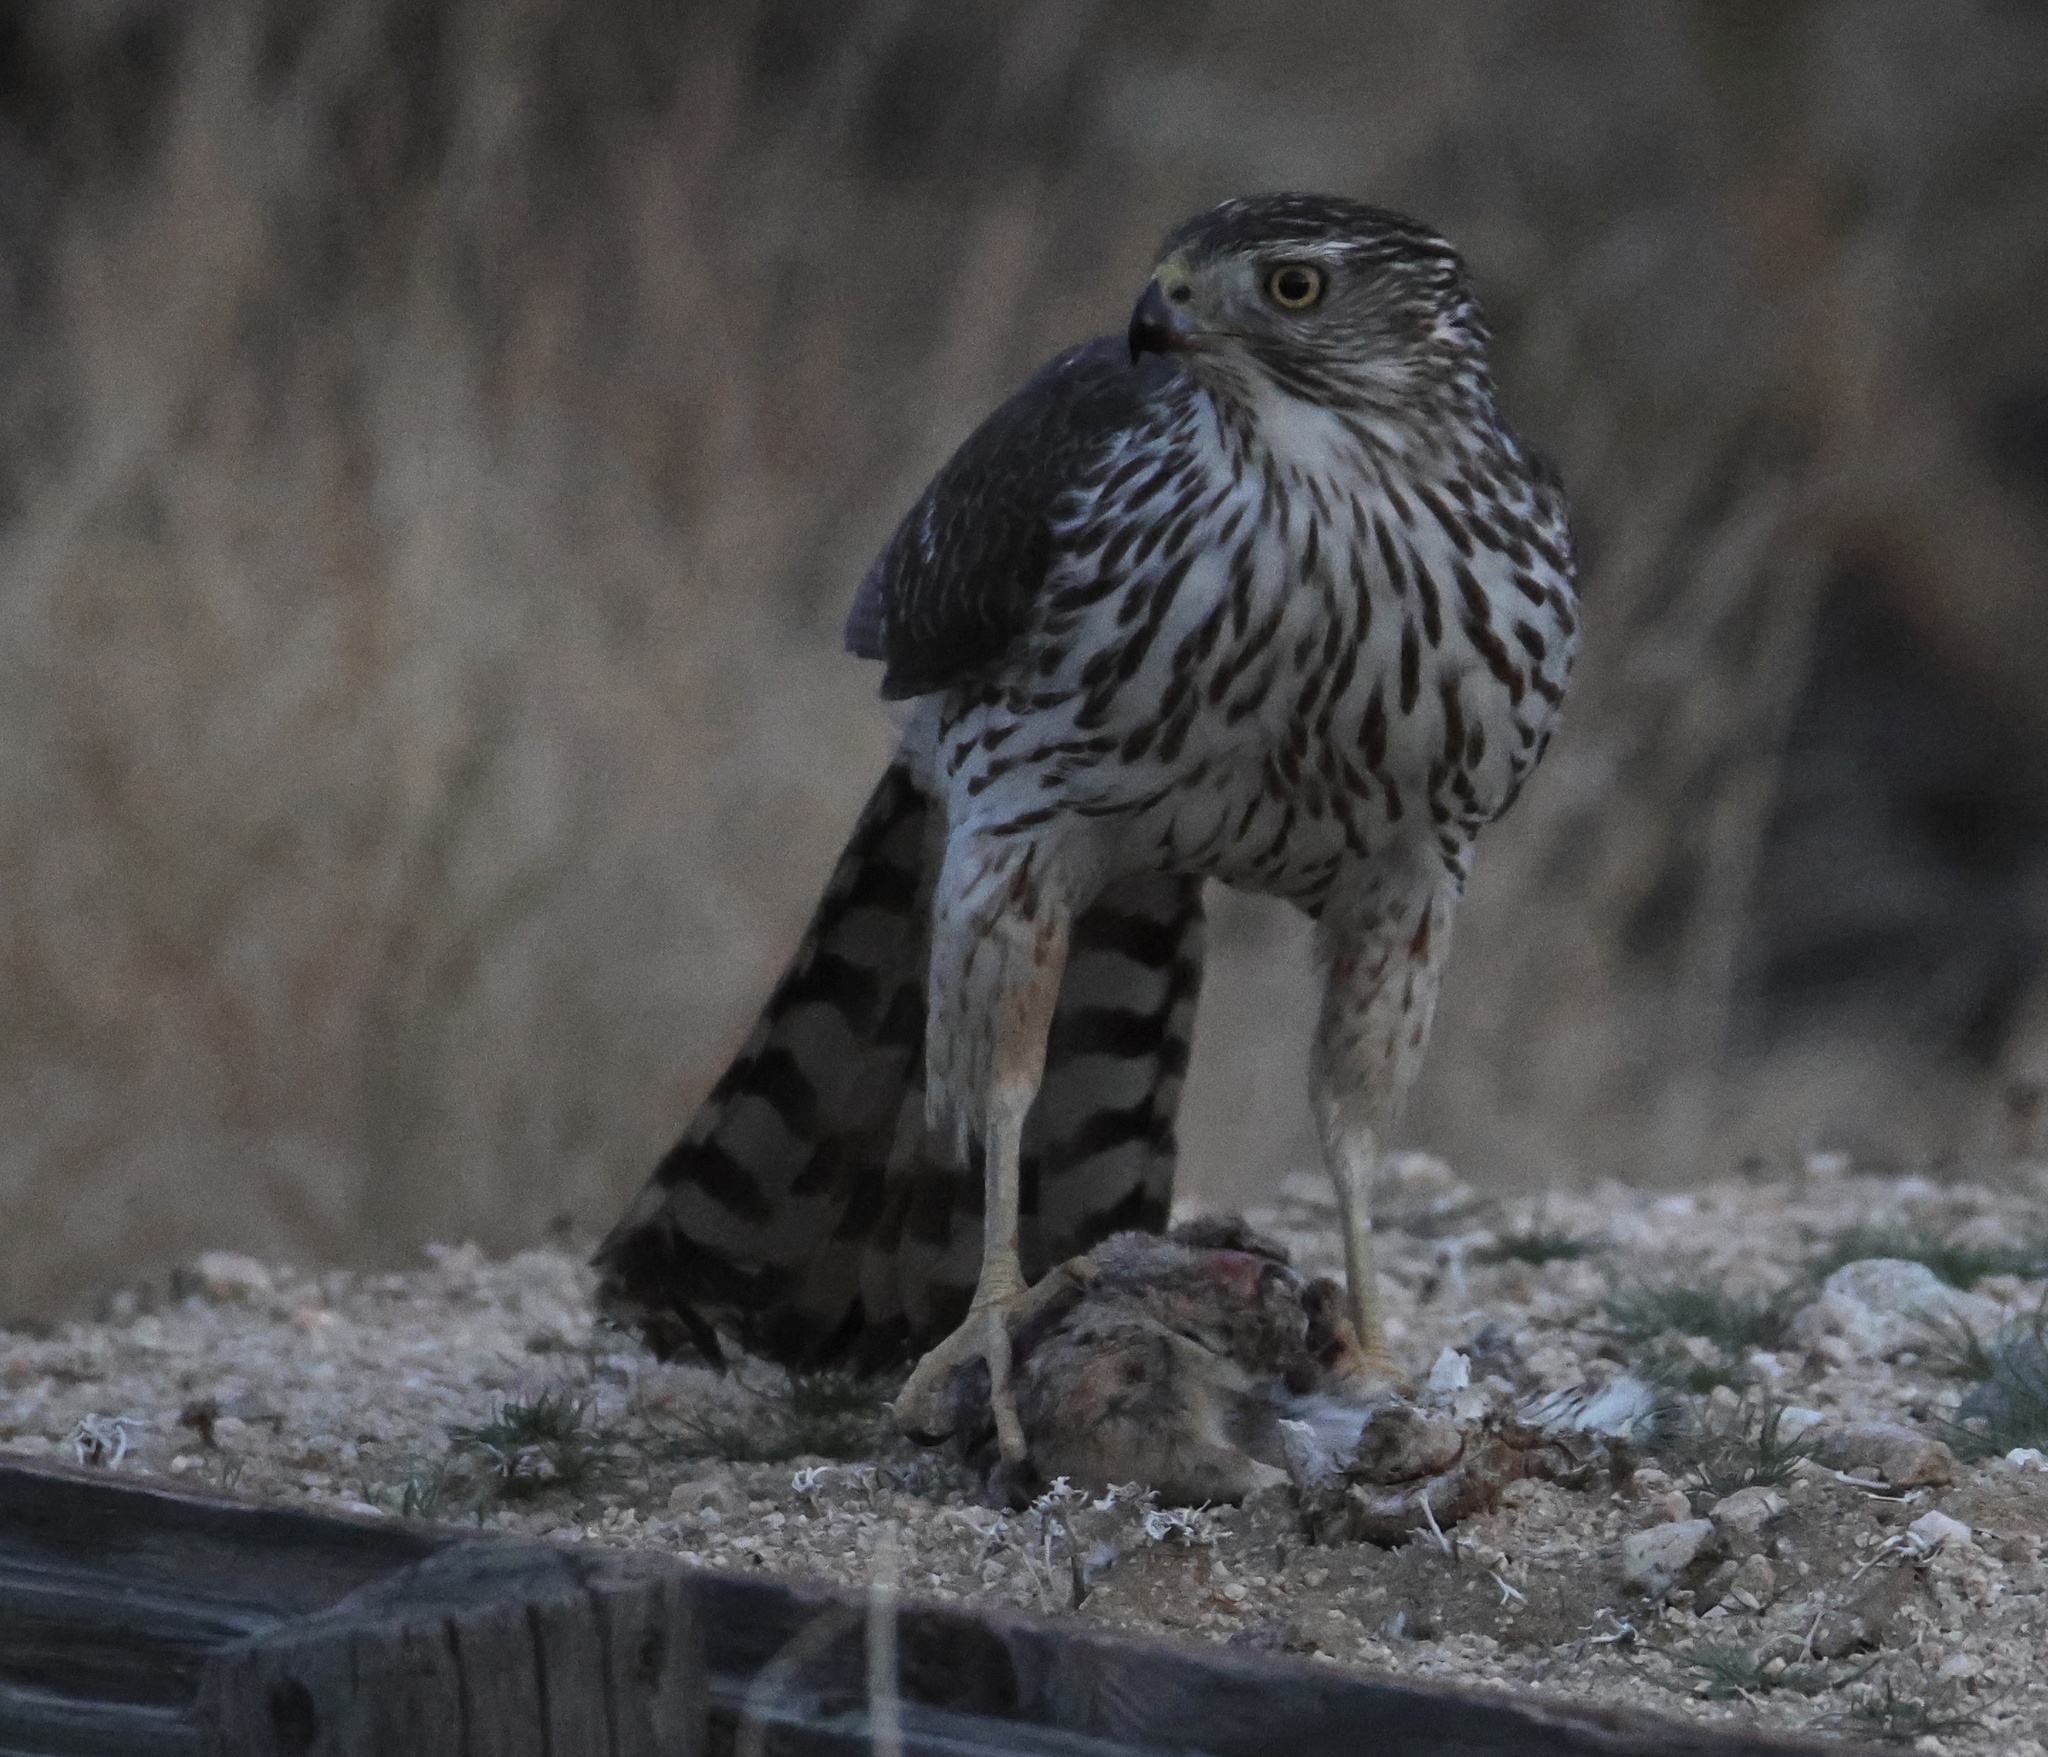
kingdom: Animalia
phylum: Chordata
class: Aves
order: Accipitriformes
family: Accipitridae
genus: Accipiter
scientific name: Accipiter cooperii
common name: Cooper's hawk
